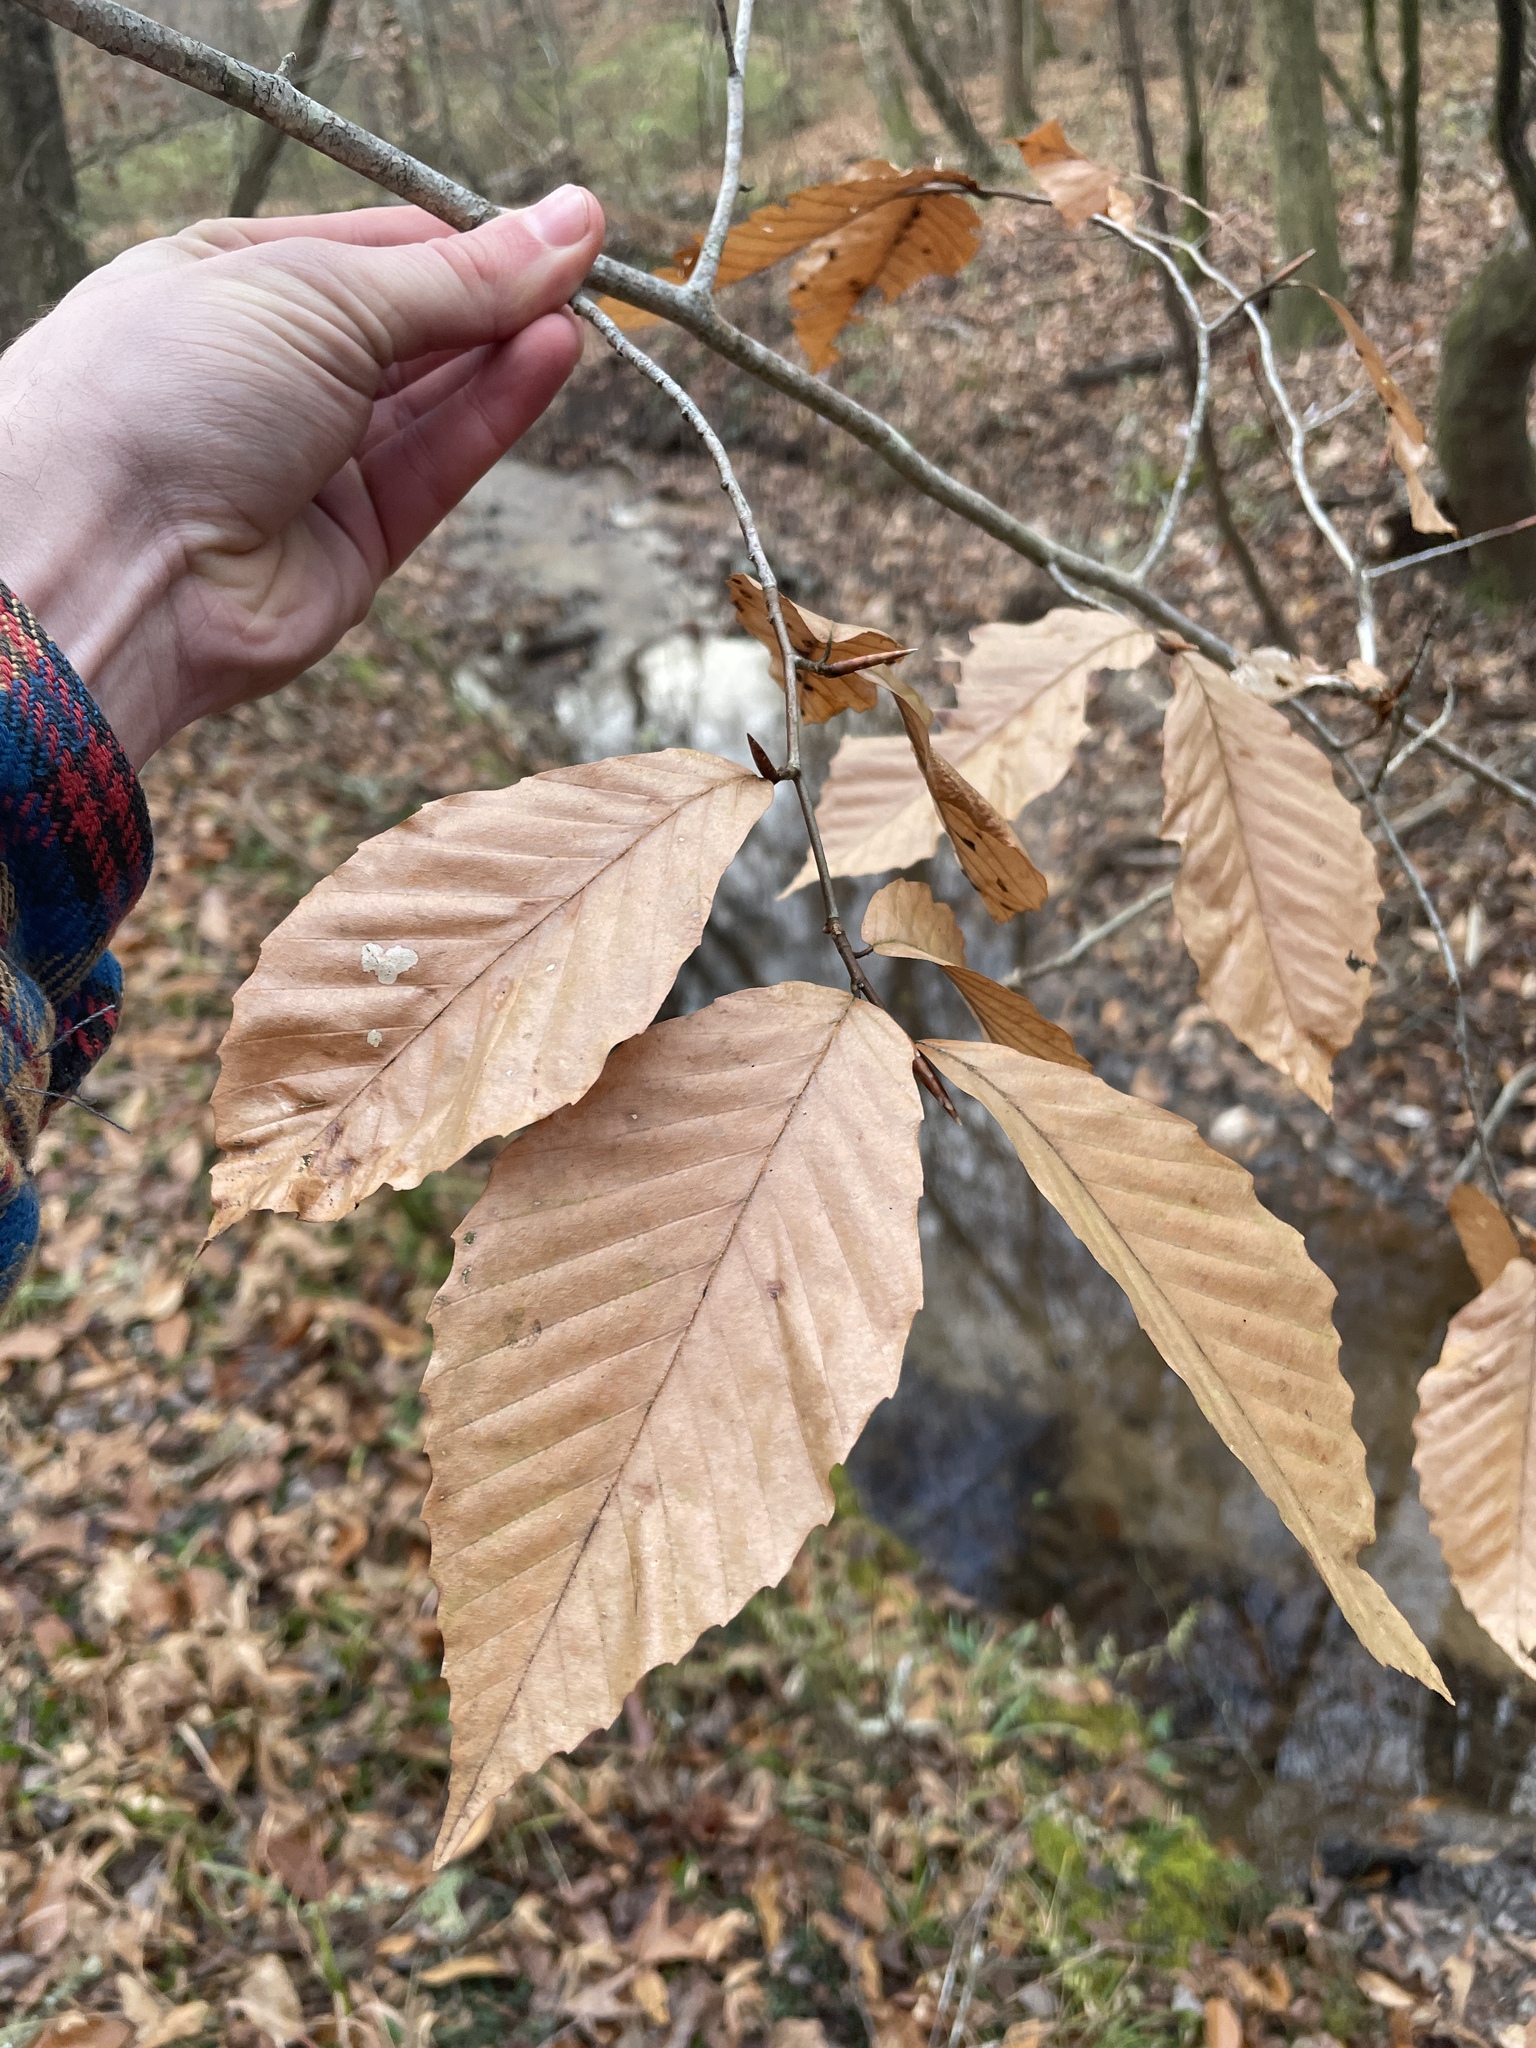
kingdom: Plantae
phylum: Tracheophyta
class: Magnoliopsida
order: Fagales
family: Fagaceae
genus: Fagus
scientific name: Fagus grandifolia
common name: American beech
